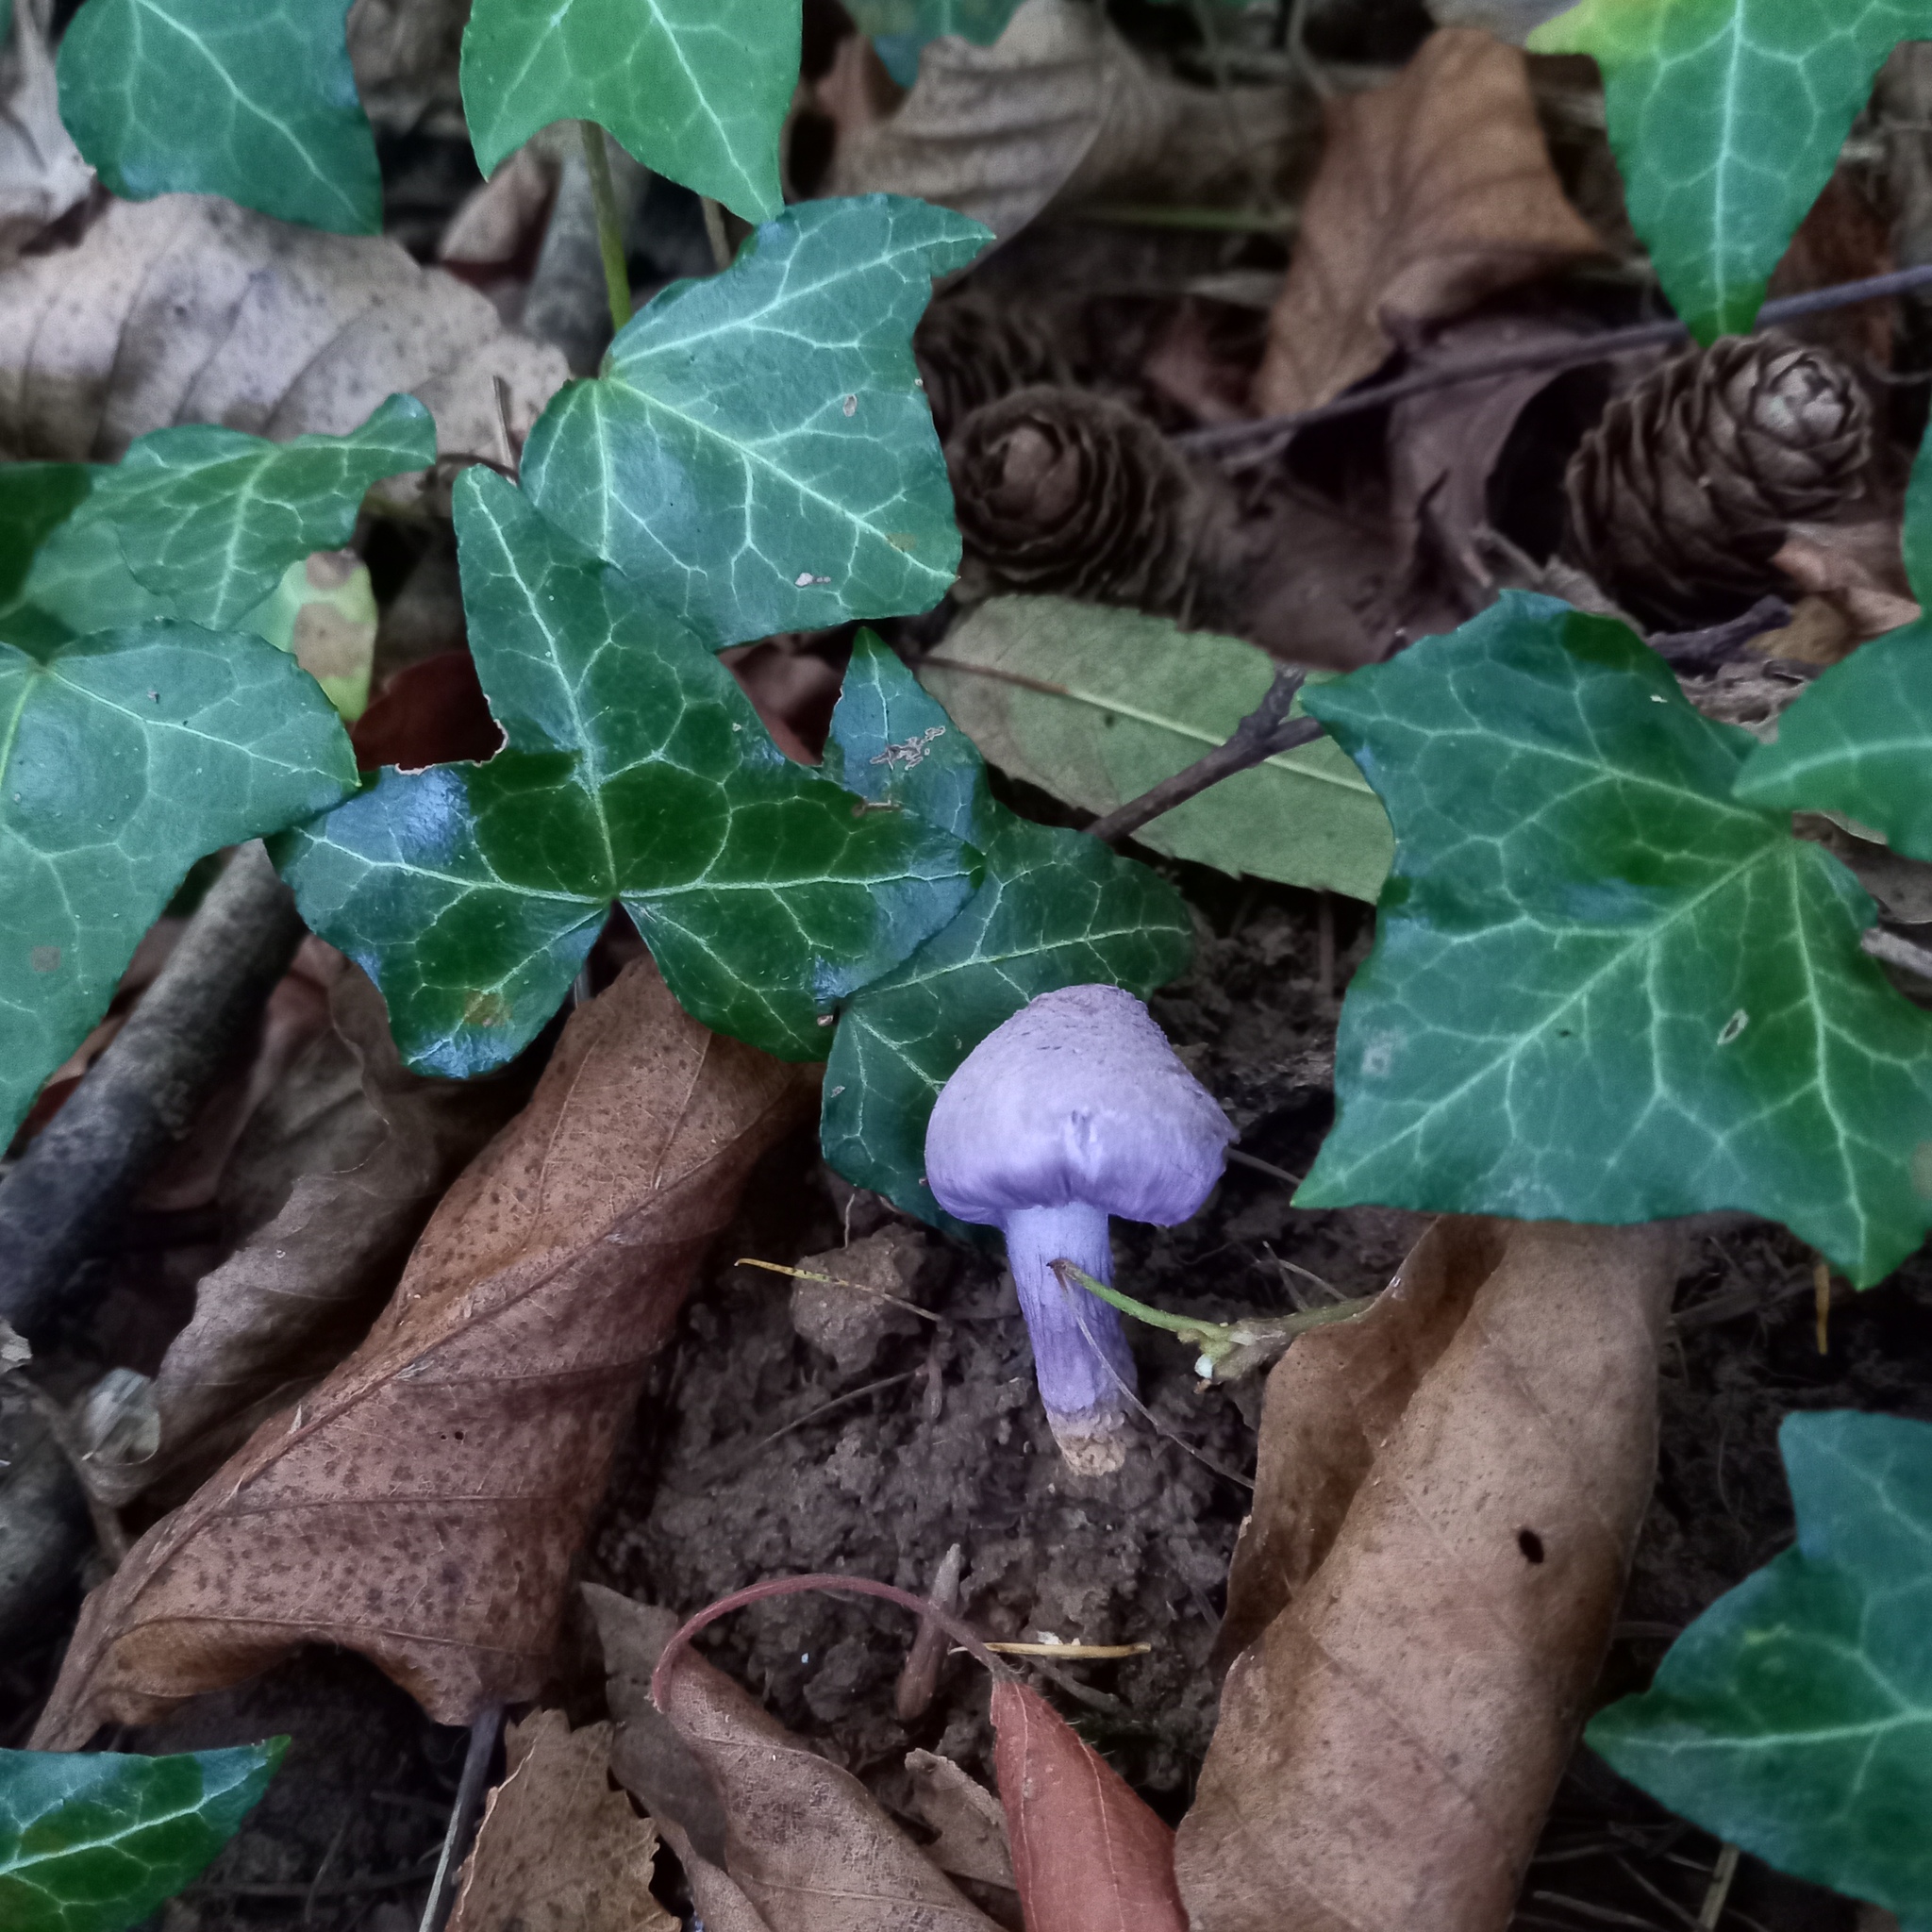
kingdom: Fungi
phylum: Basidiomycota
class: Agaricomycetes
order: Agaricales
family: Inocybaceae
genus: Inocybe
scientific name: Inocybe geophylla
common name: White fibrecap
